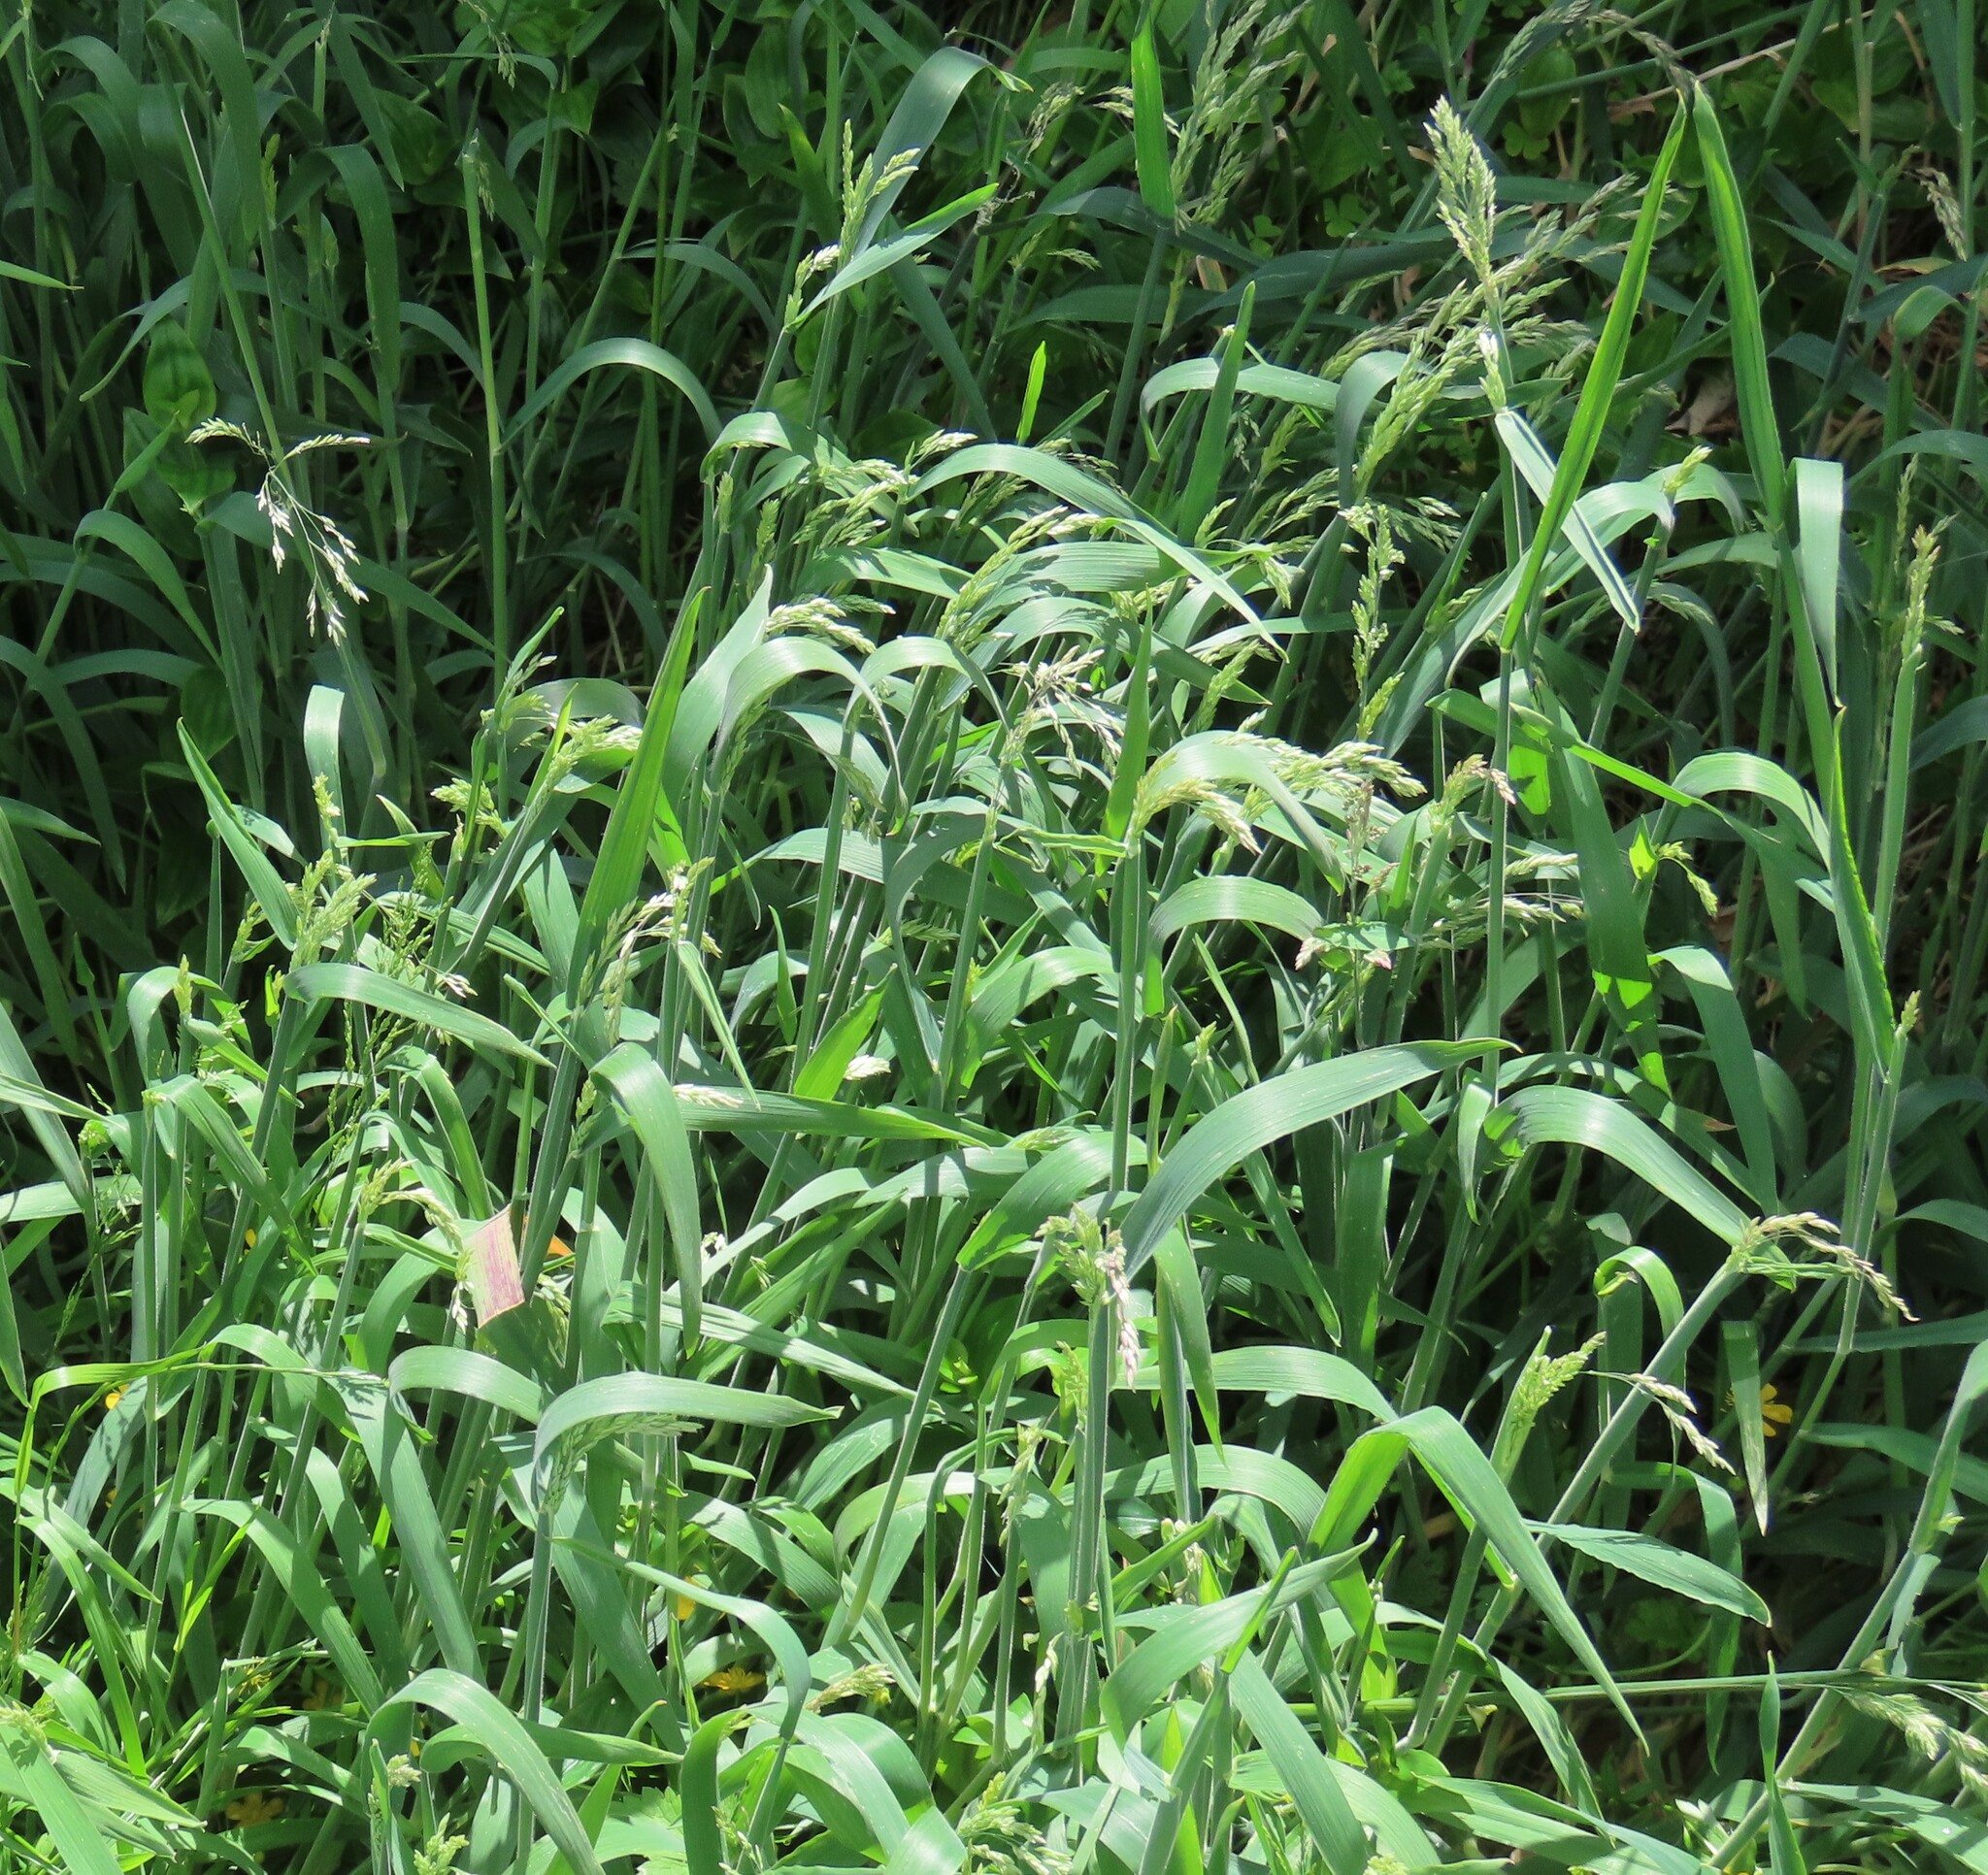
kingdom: Plantae
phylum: Tracheophyta
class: Liliopsida
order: Poales
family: Poaceae
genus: Holcus
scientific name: Holcus lanatus
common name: Yorkshire-fog
